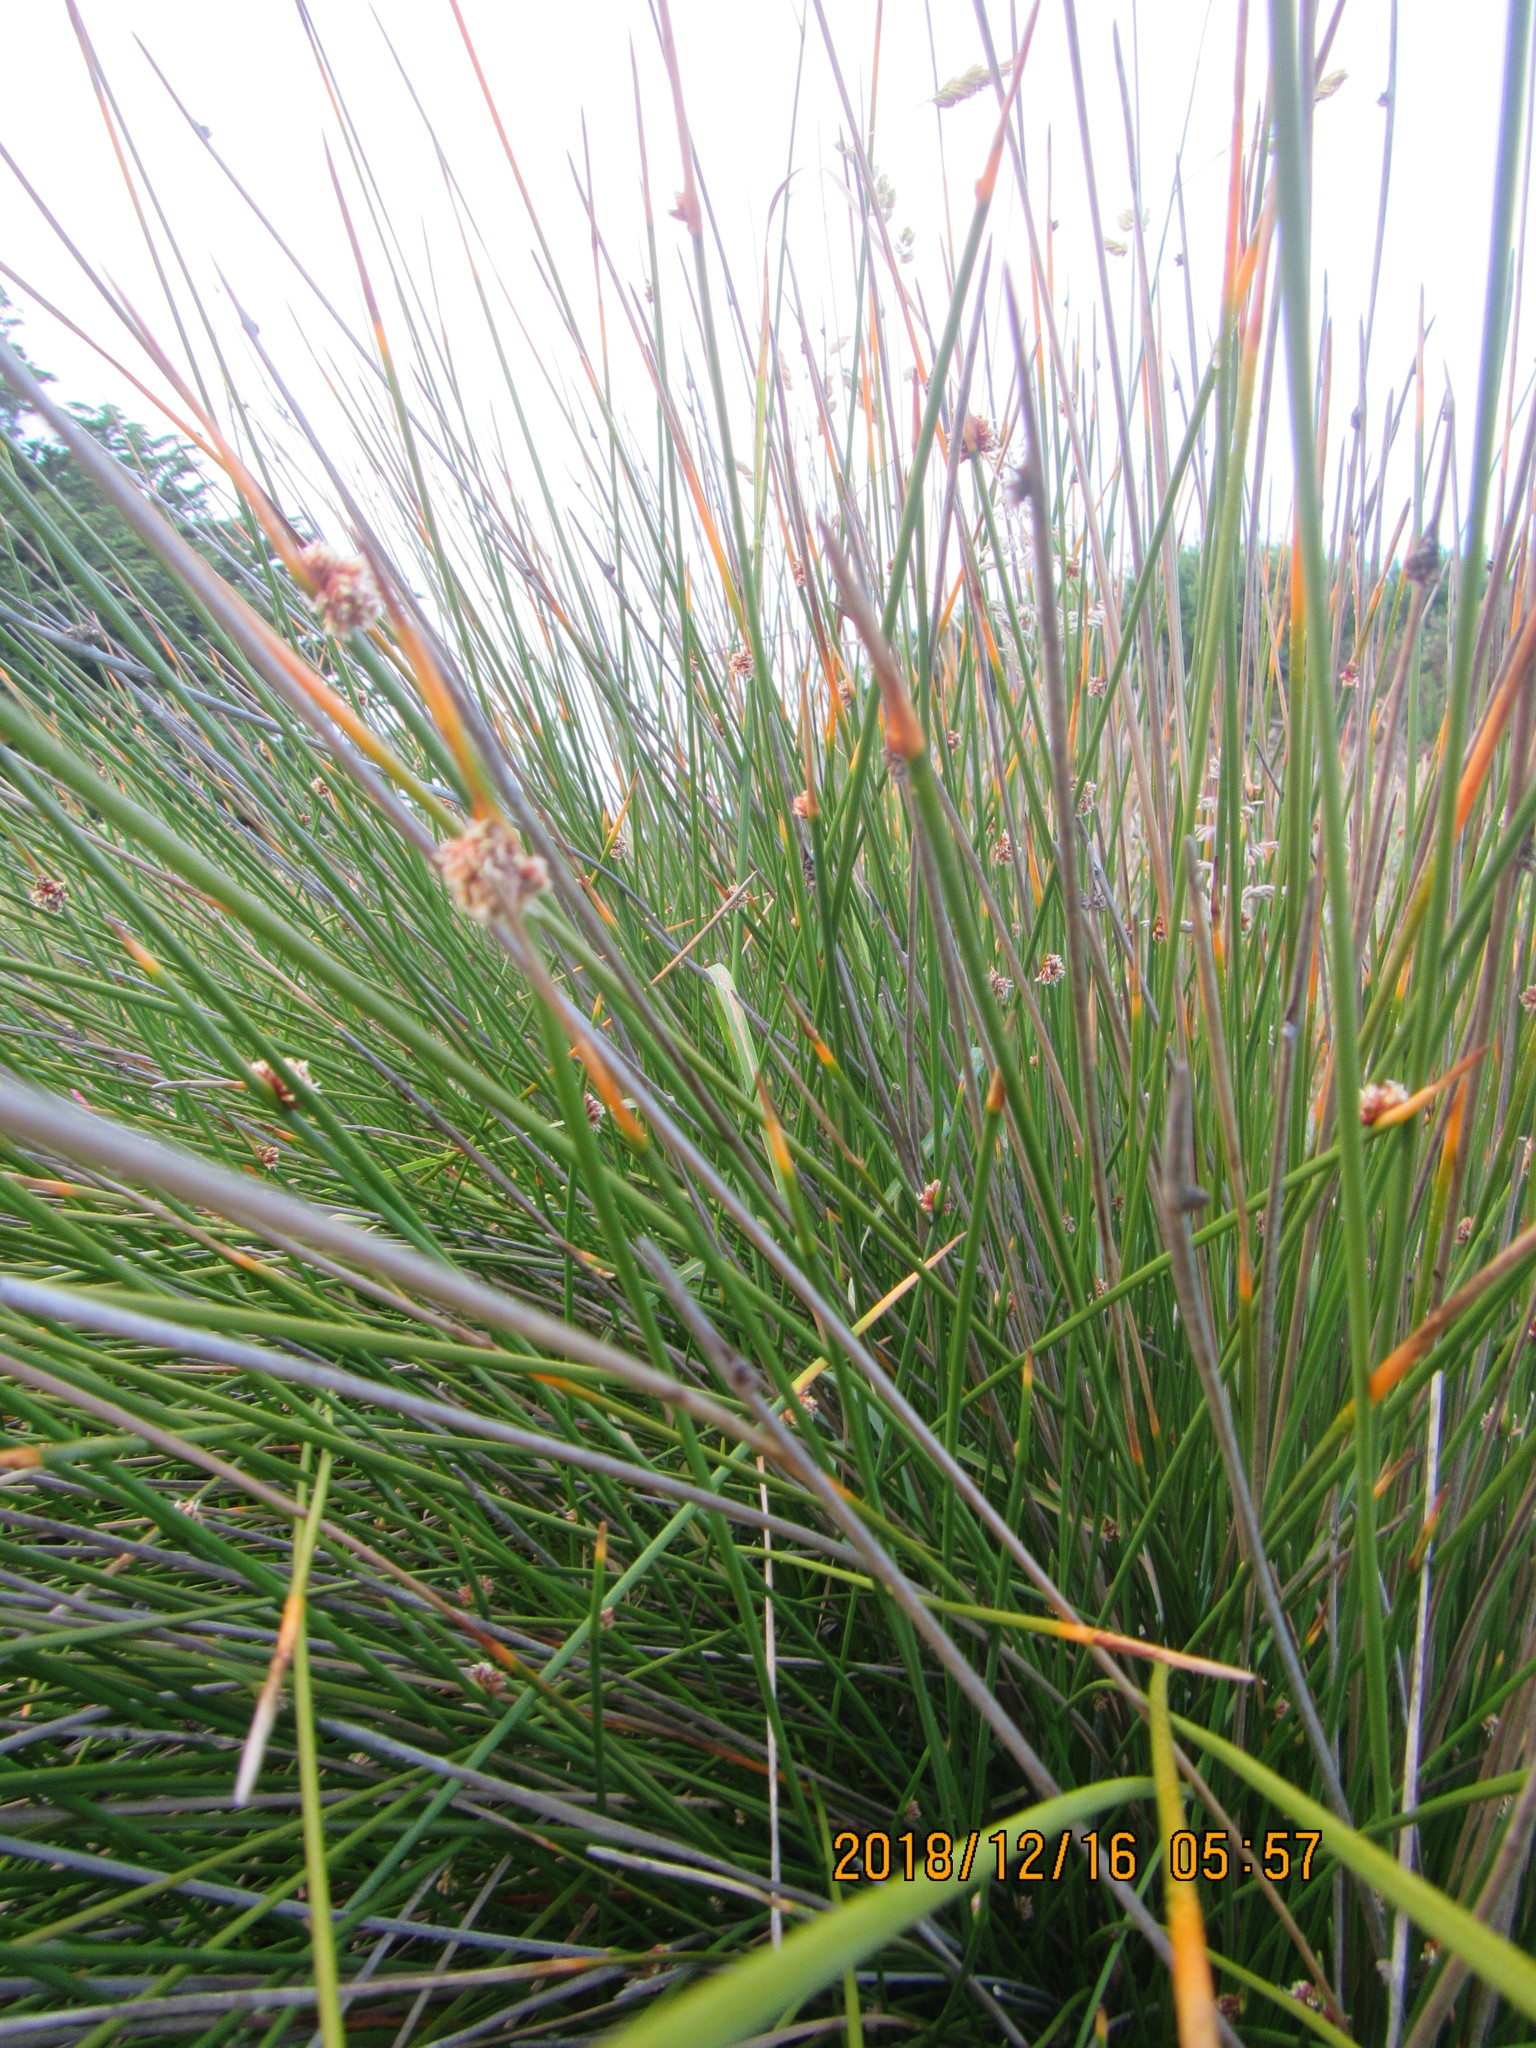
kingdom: Plantae
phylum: Tracheophyta
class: Liliopsida
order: Poales
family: Cyperaceae
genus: Ficinia
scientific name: Ficinia nodosa
